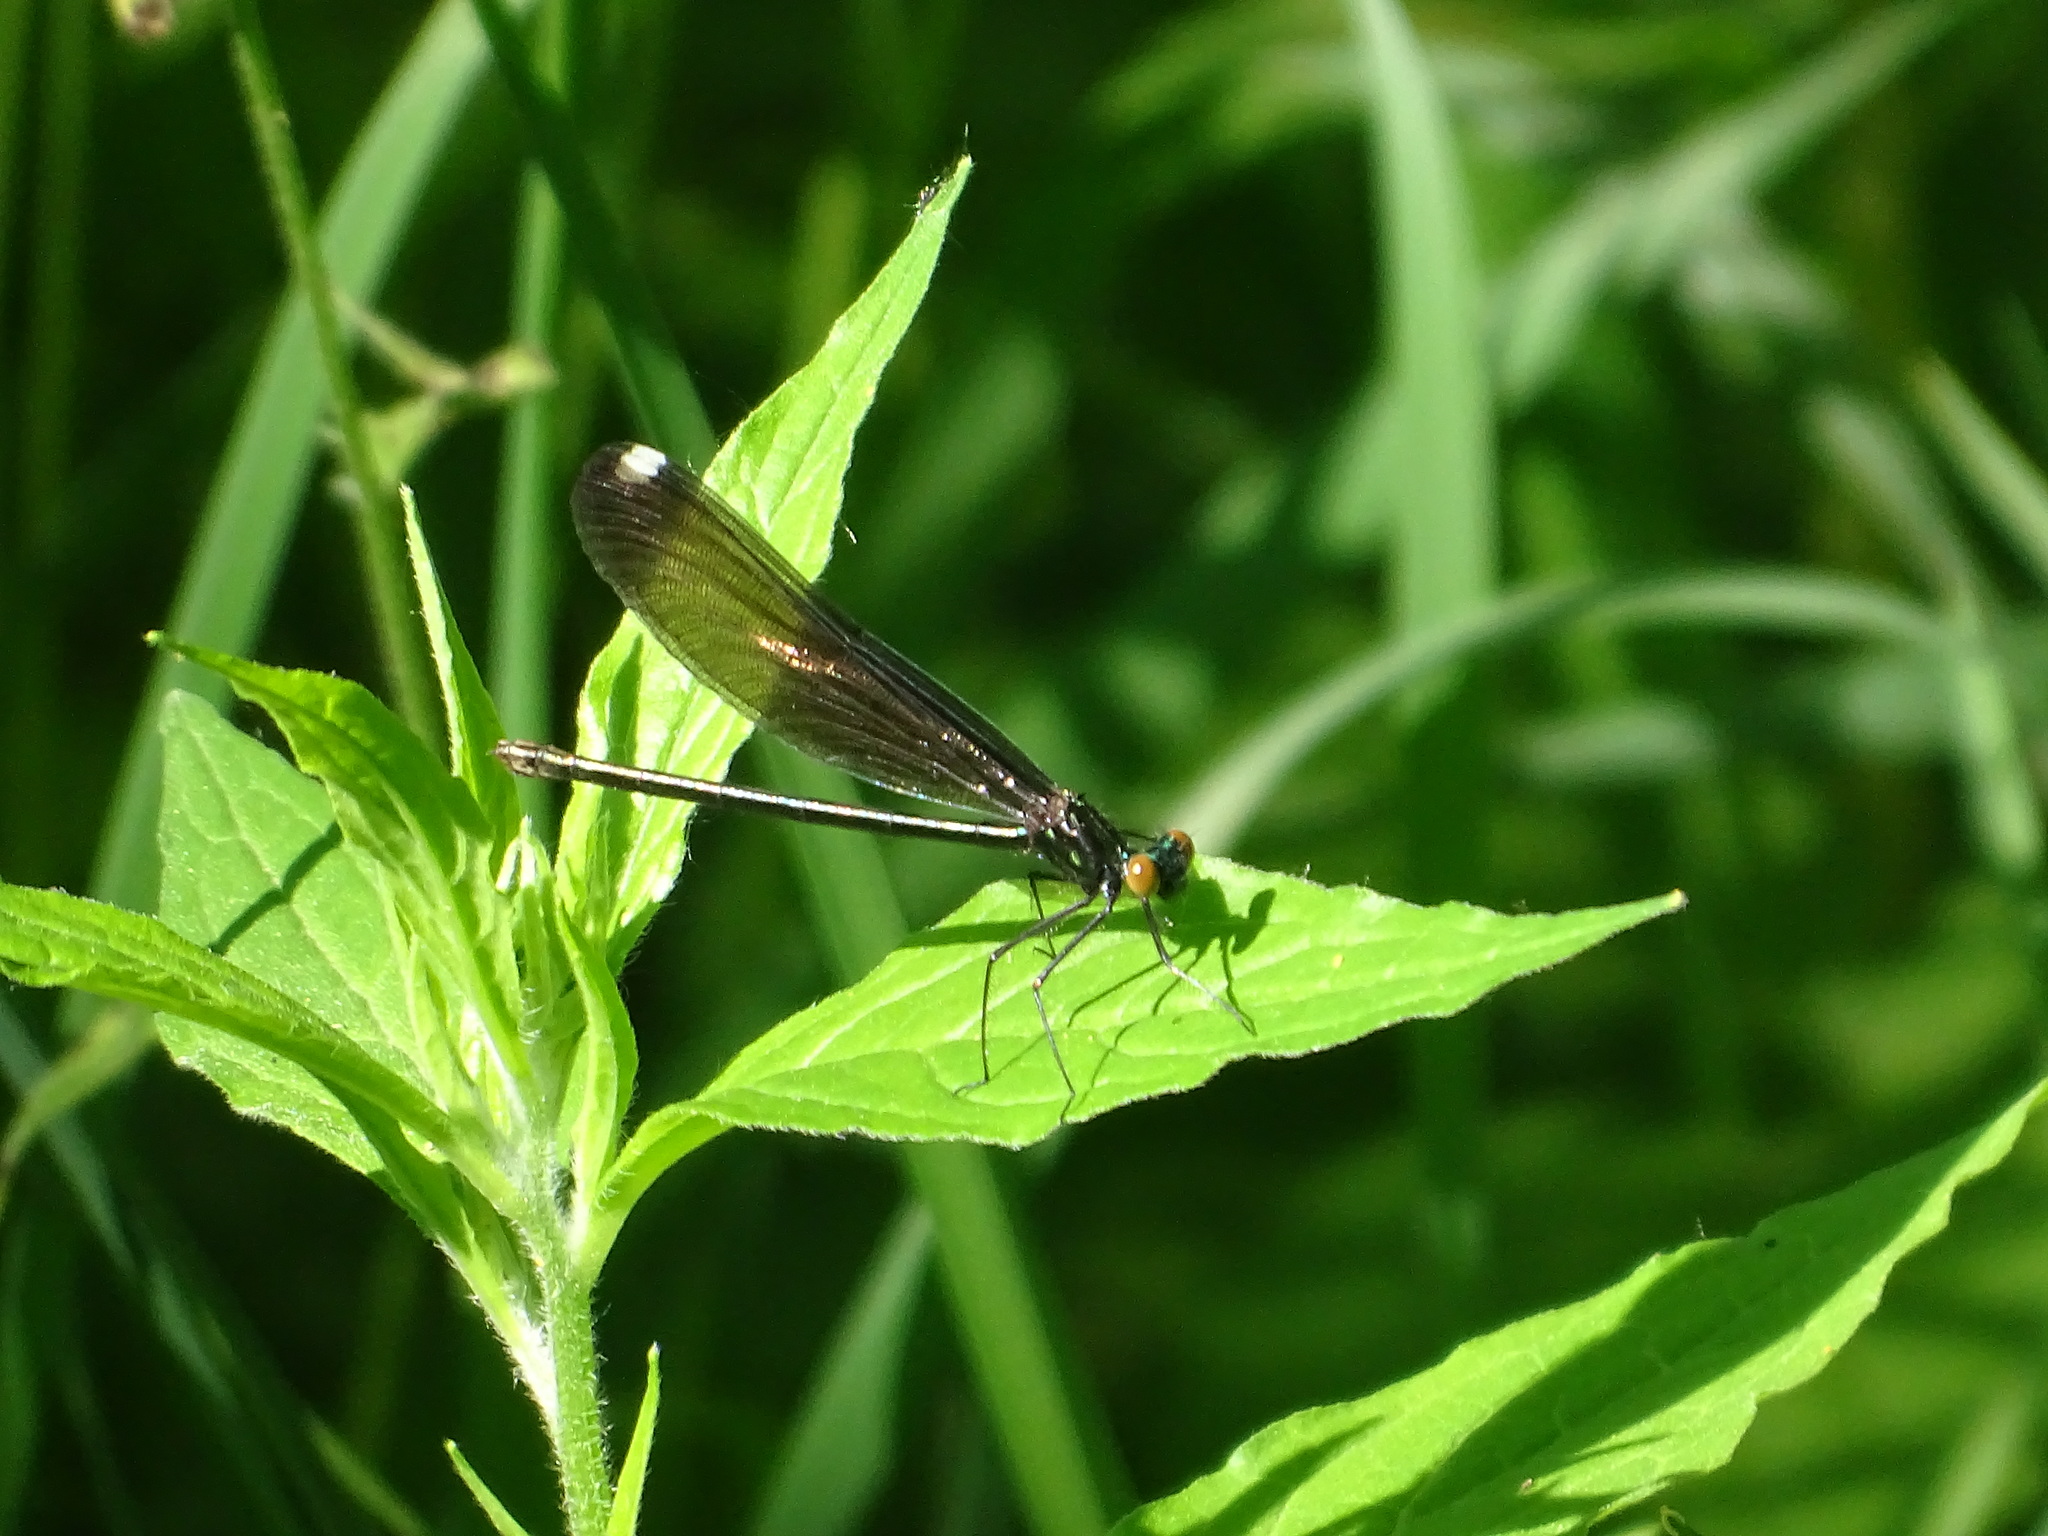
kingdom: Animalia
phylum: Arthropoda
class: Insecta
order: Odonata
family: Calopterygidae
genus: Calopteryx
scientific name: Calopteryx maculata
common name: Ebony jewelwing
